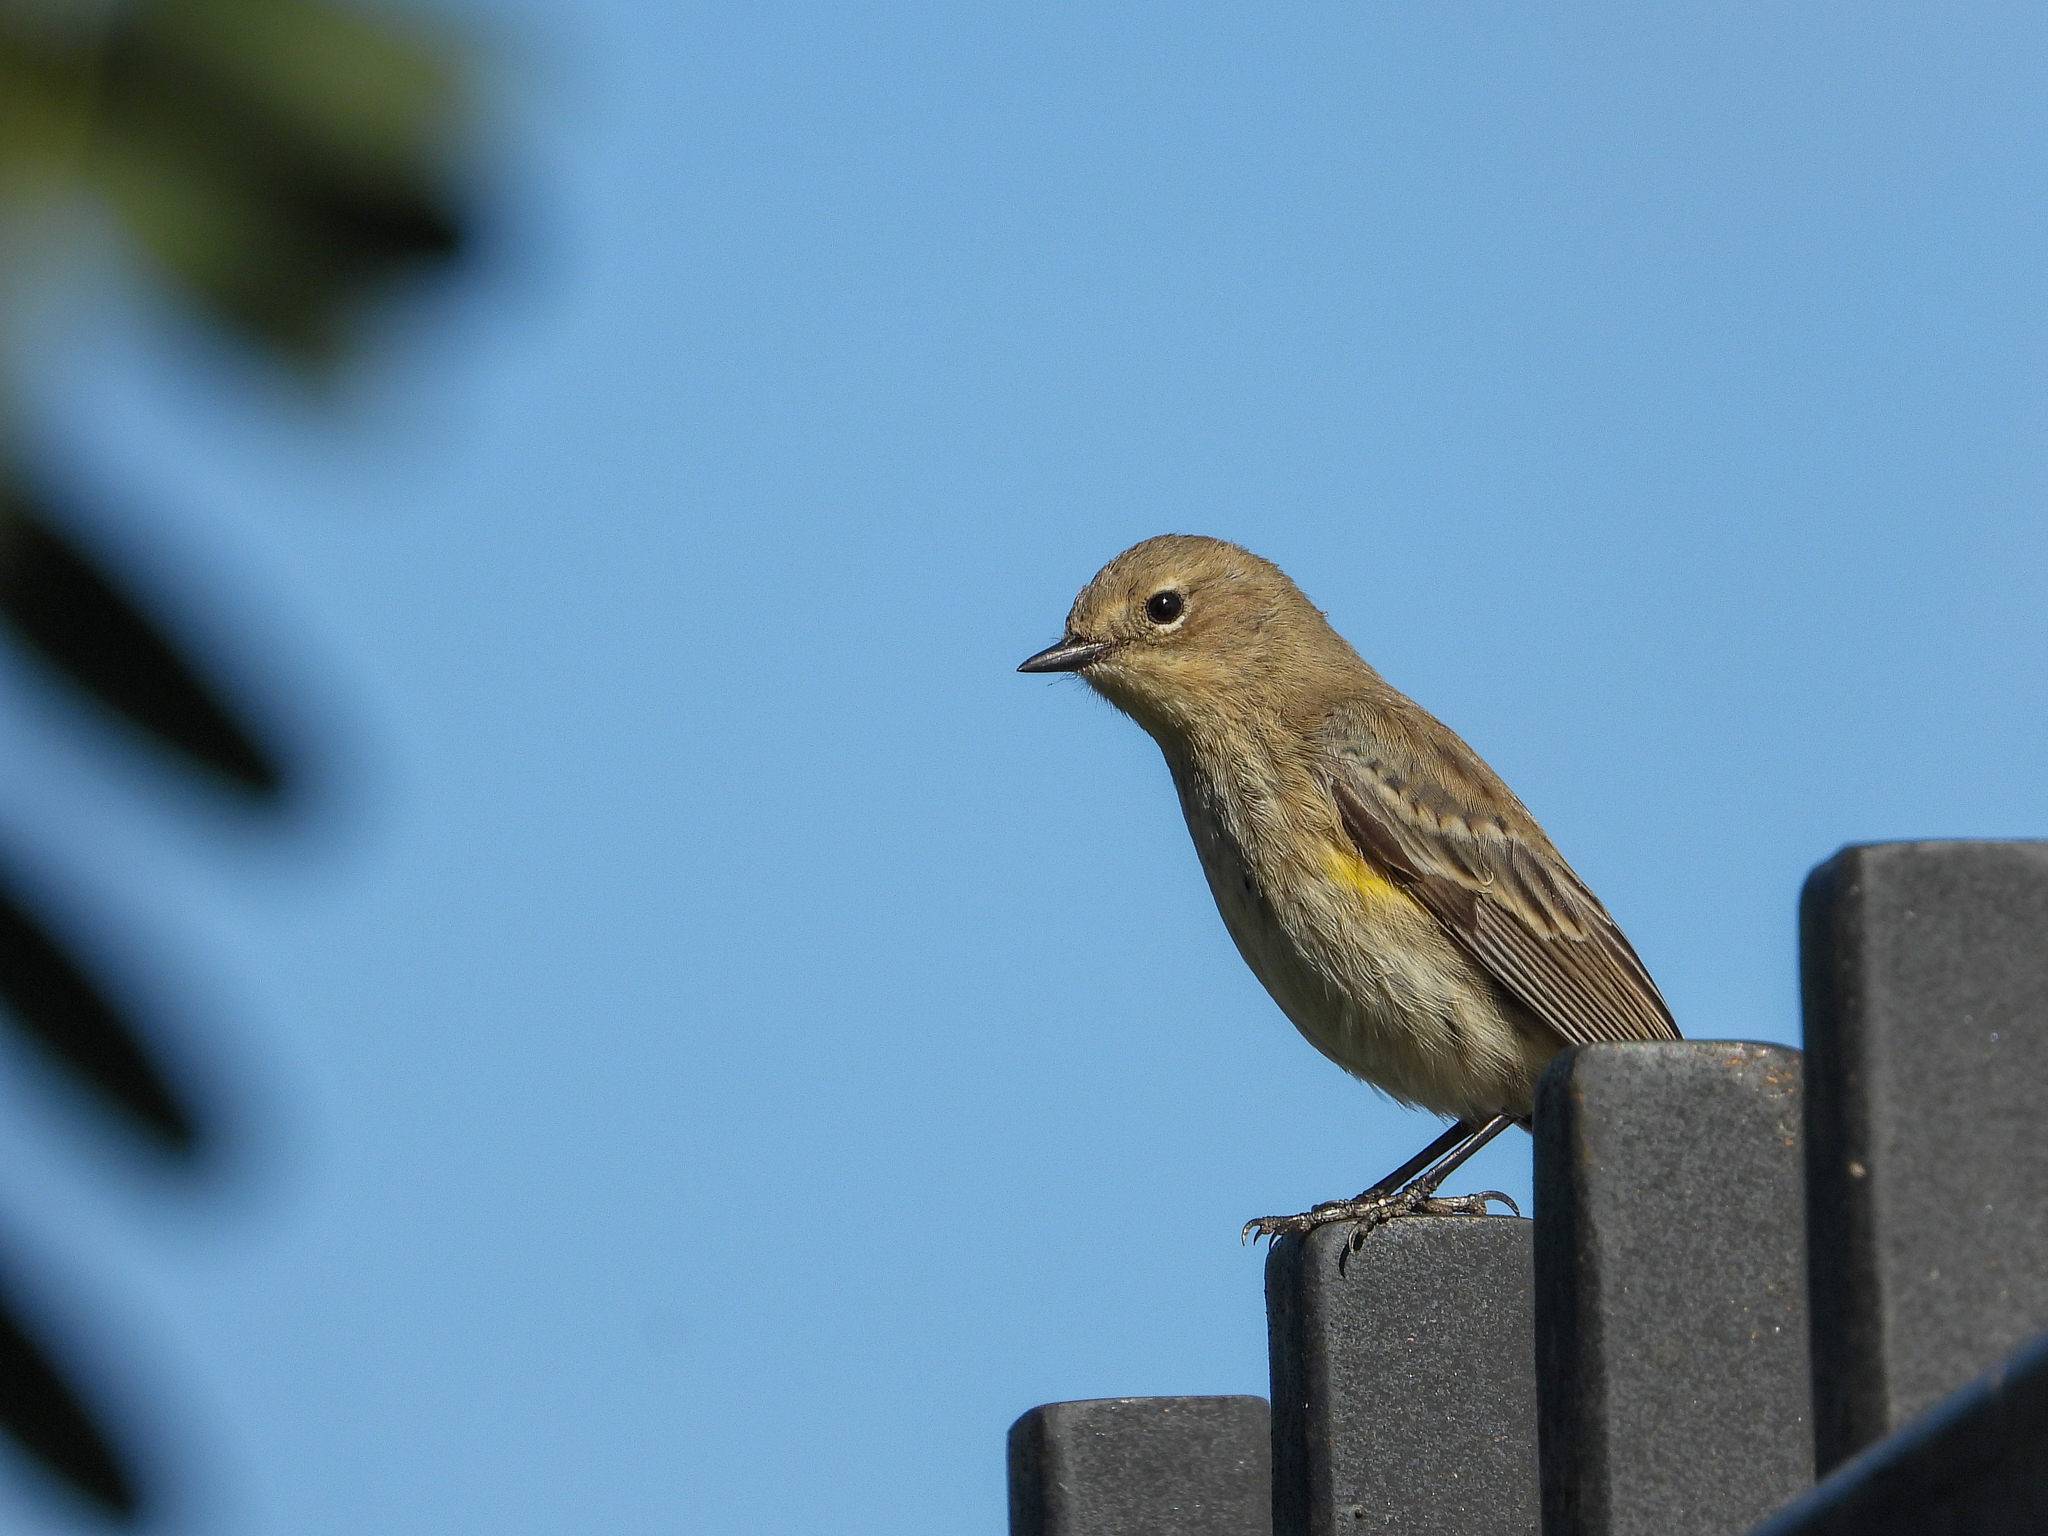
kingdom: Animalia
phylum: Chordata
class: Aves
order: Passeriformes
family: Parulidae
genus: Setophaga
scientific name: Setophaga coronata
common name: Myrtle warbler
